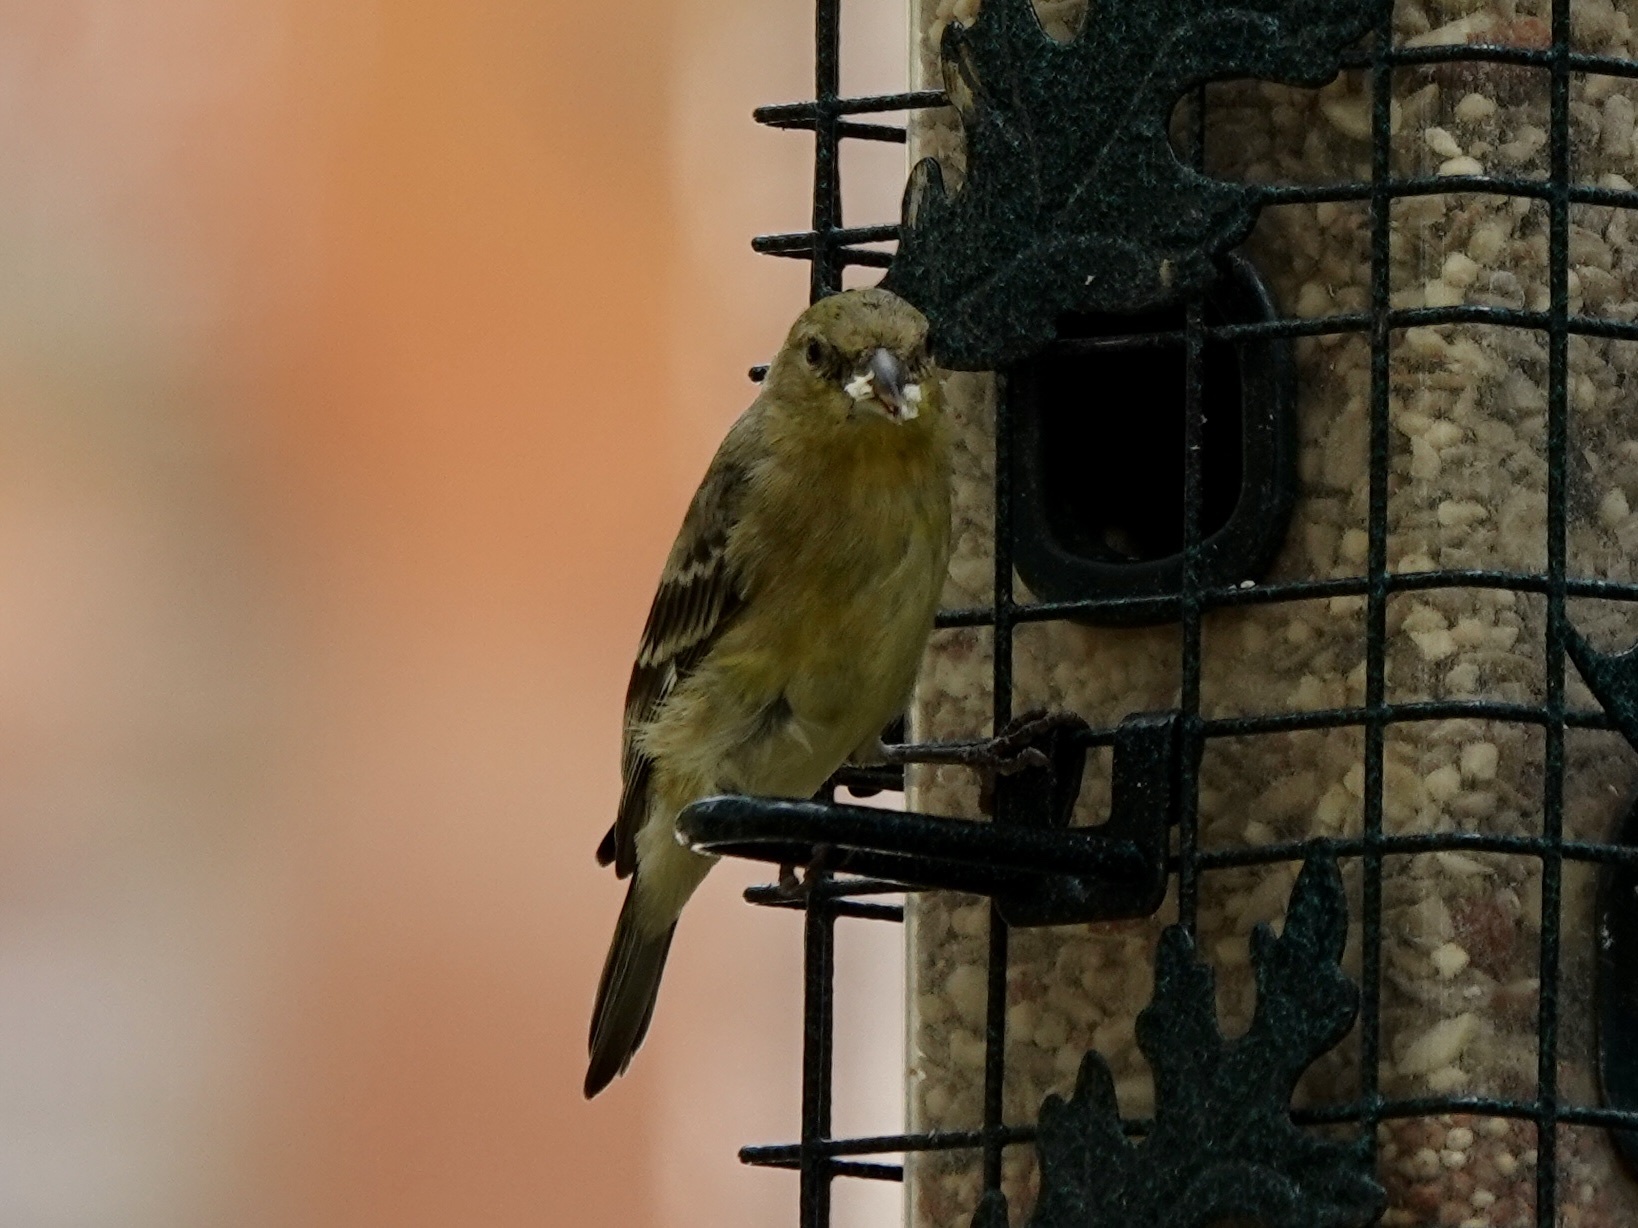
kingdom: Animalia
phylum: Chordata
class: Aves
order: Passeriformes
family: Fringillidae
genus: Spinus
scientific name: Spinus psaltria
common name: Lesser goldfinch
